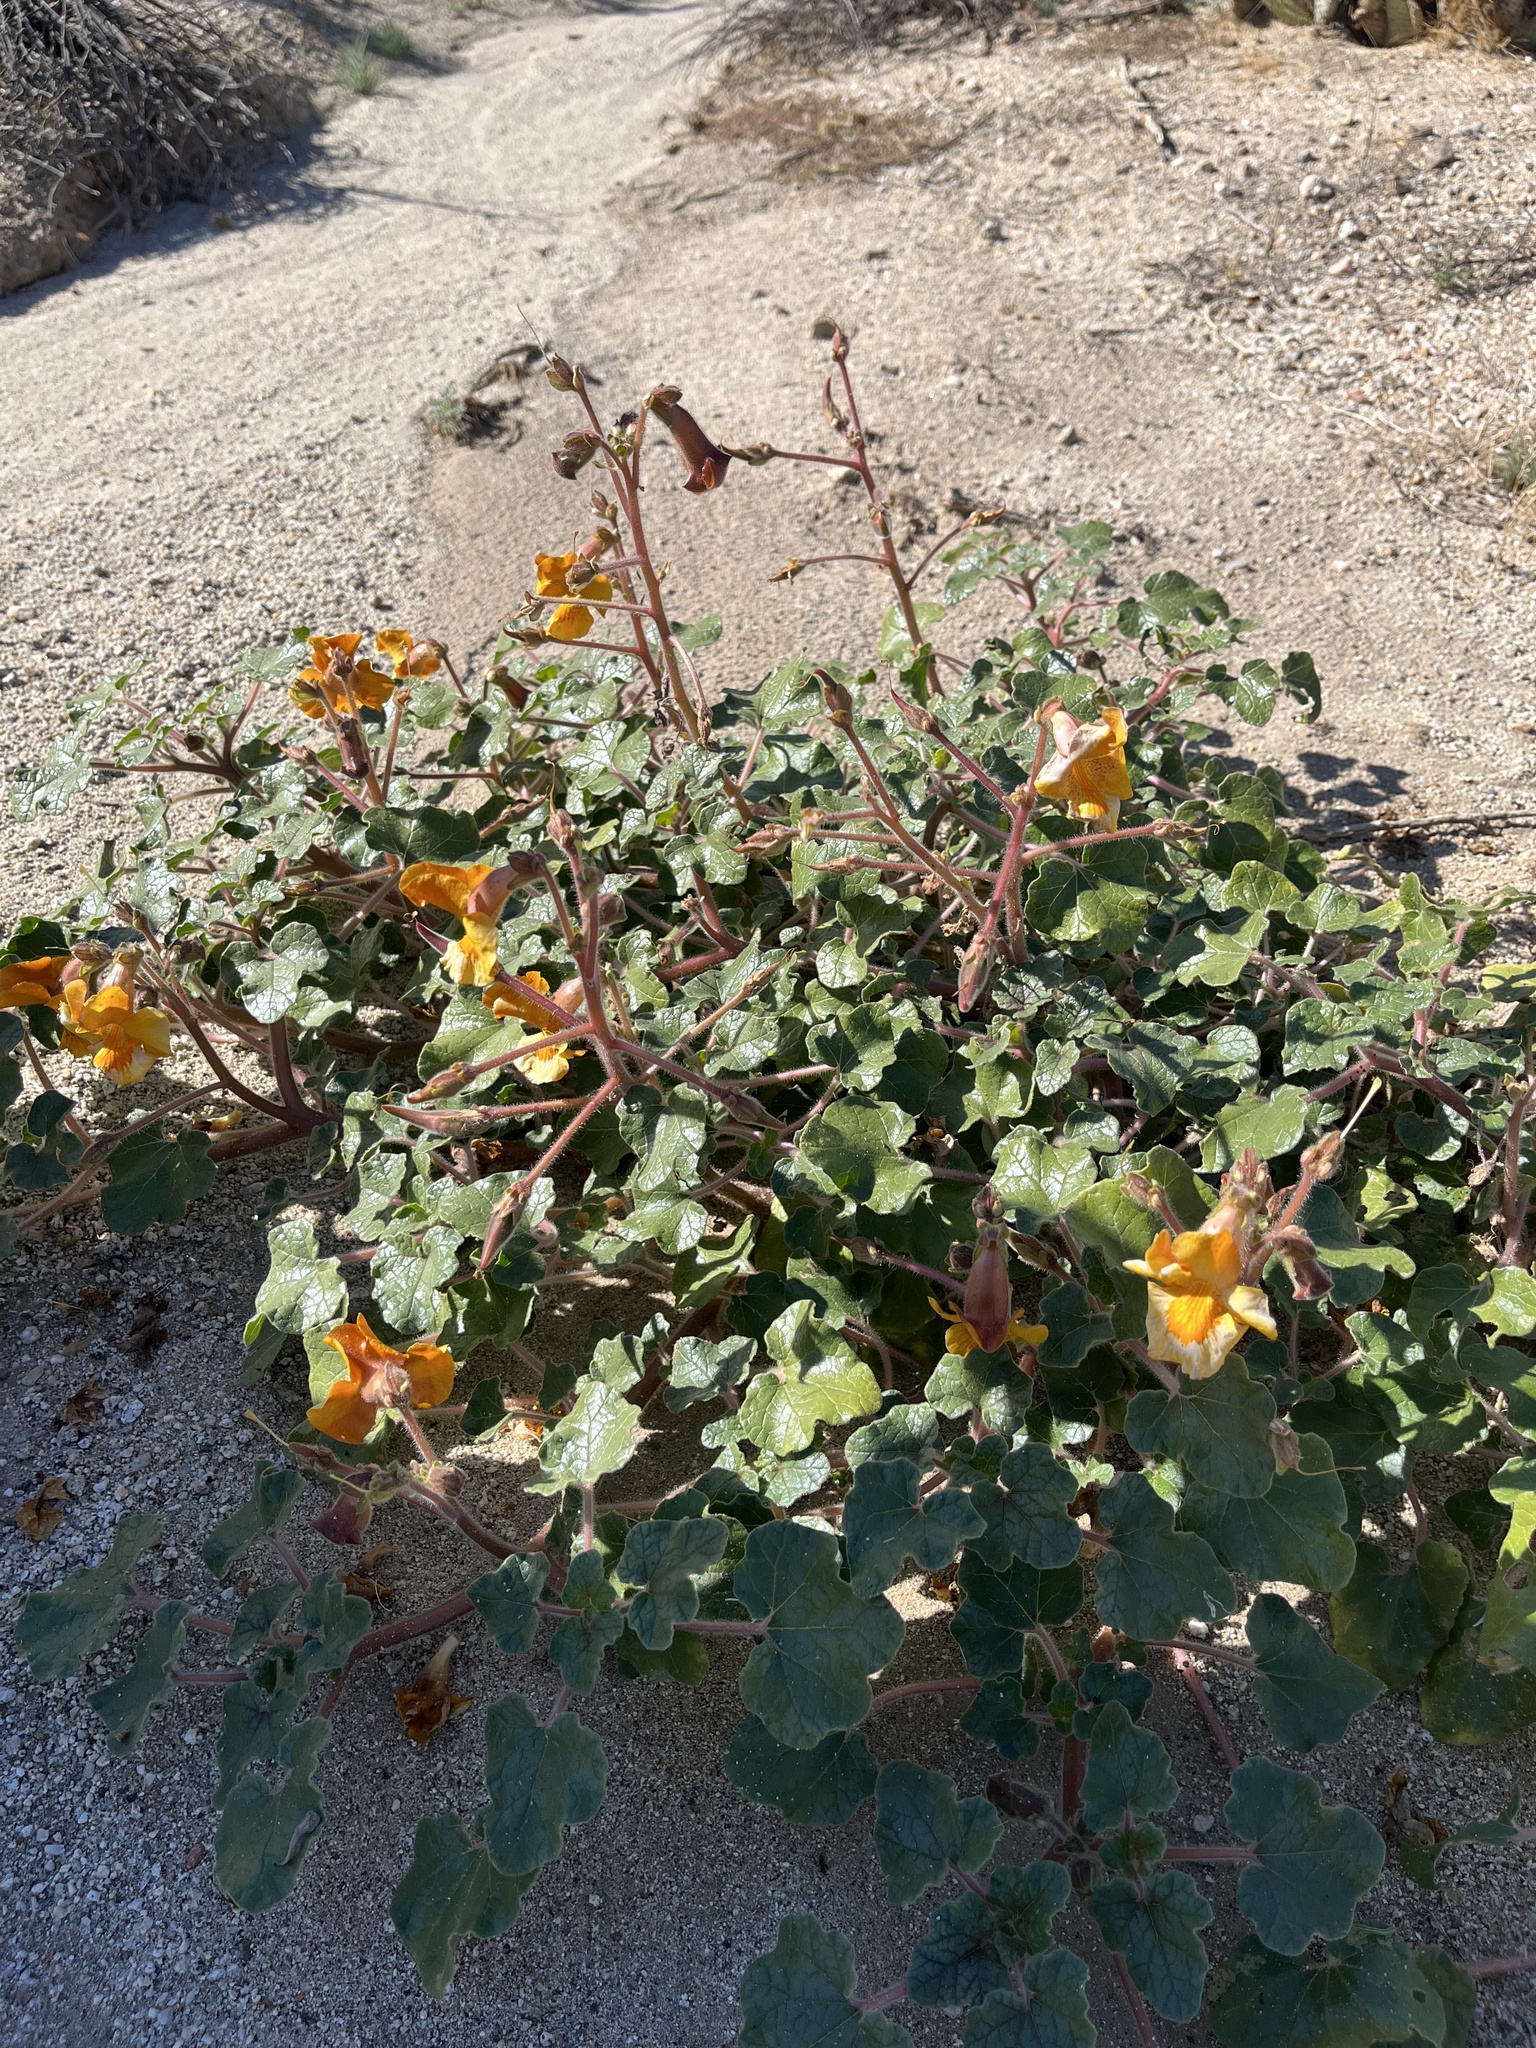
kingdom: Plantae
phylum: Tracheophyta
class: Magnoliopsida
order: Lamiales
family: Martyniaceae
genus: Proboscidea
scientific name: Proboscidea althaeifolia
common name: Desert unicorn-plant
